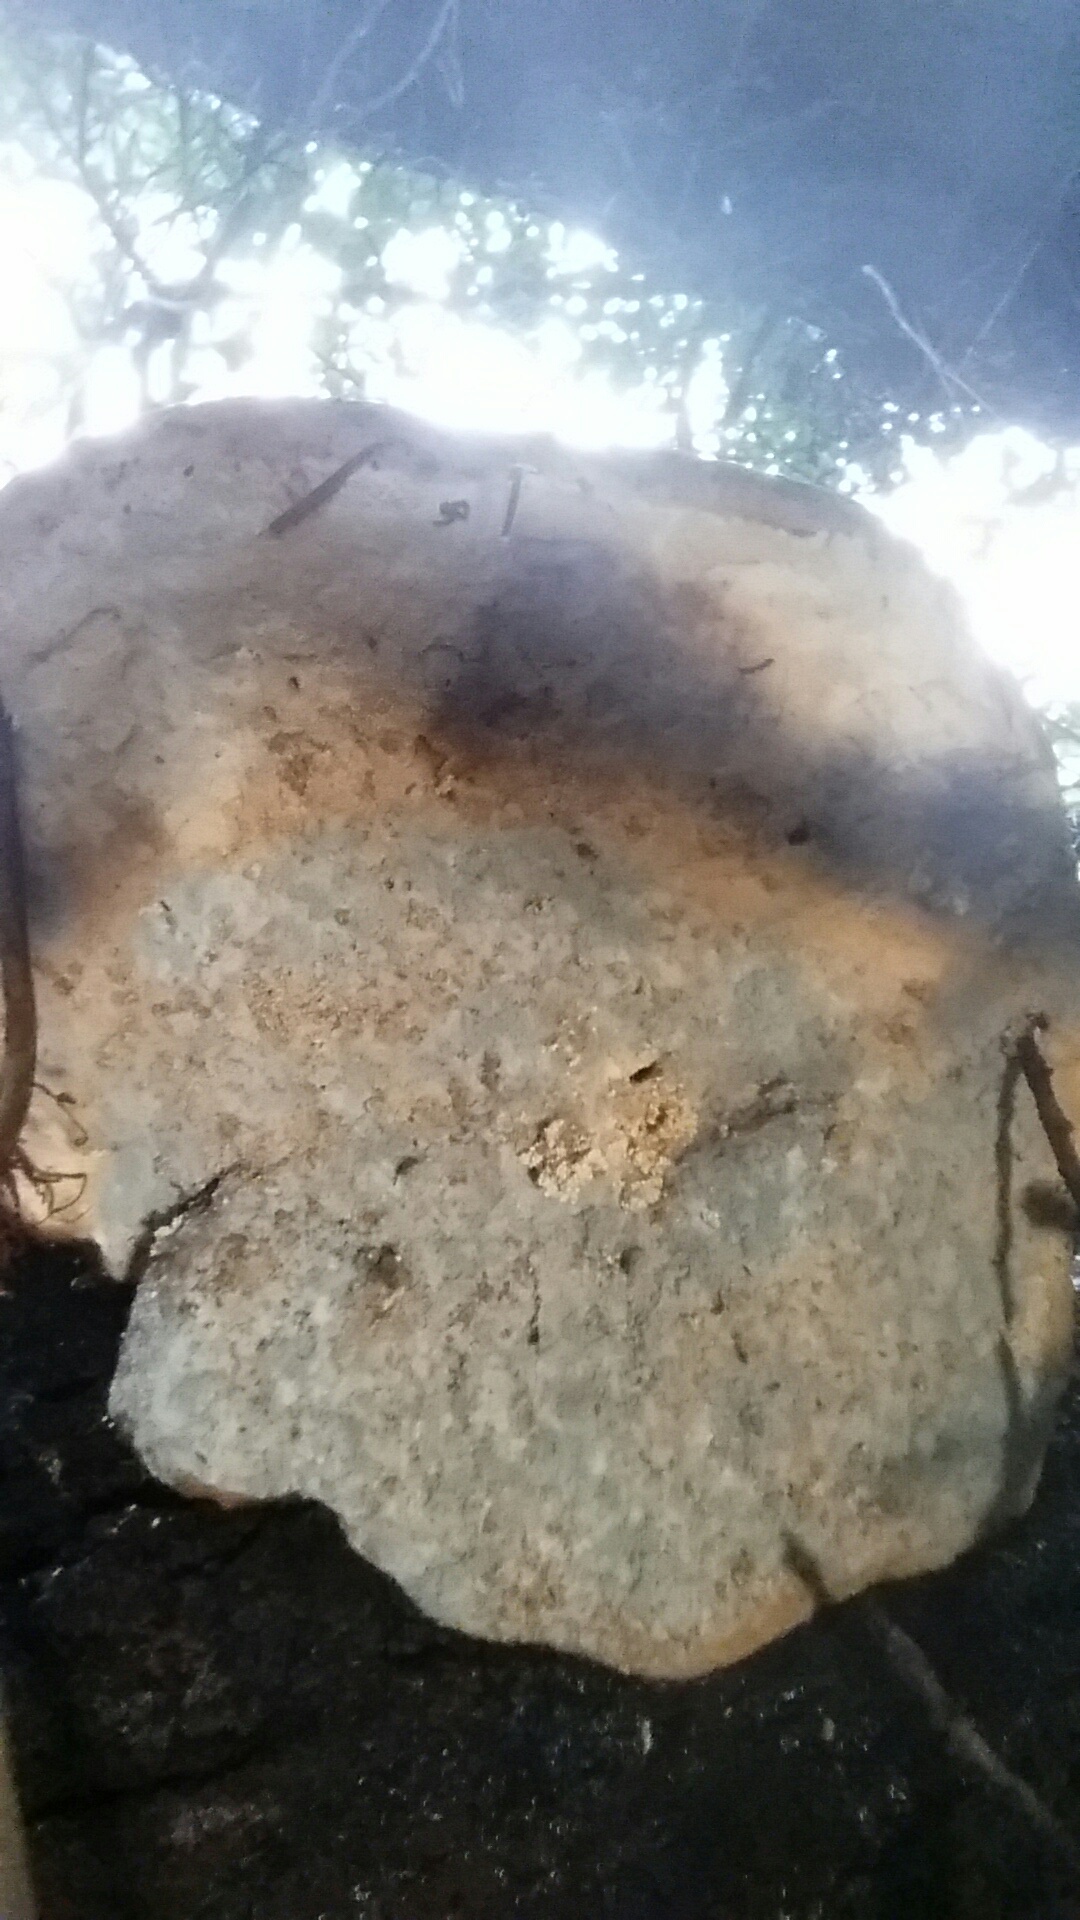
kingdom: Fungi
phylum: Basidiomycota
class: Agaricomycetes
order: Polyporales
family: Fomitopsidaceae
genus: Fomitopsis
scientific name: Fomitopsis mounceae
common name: Northern red belt
